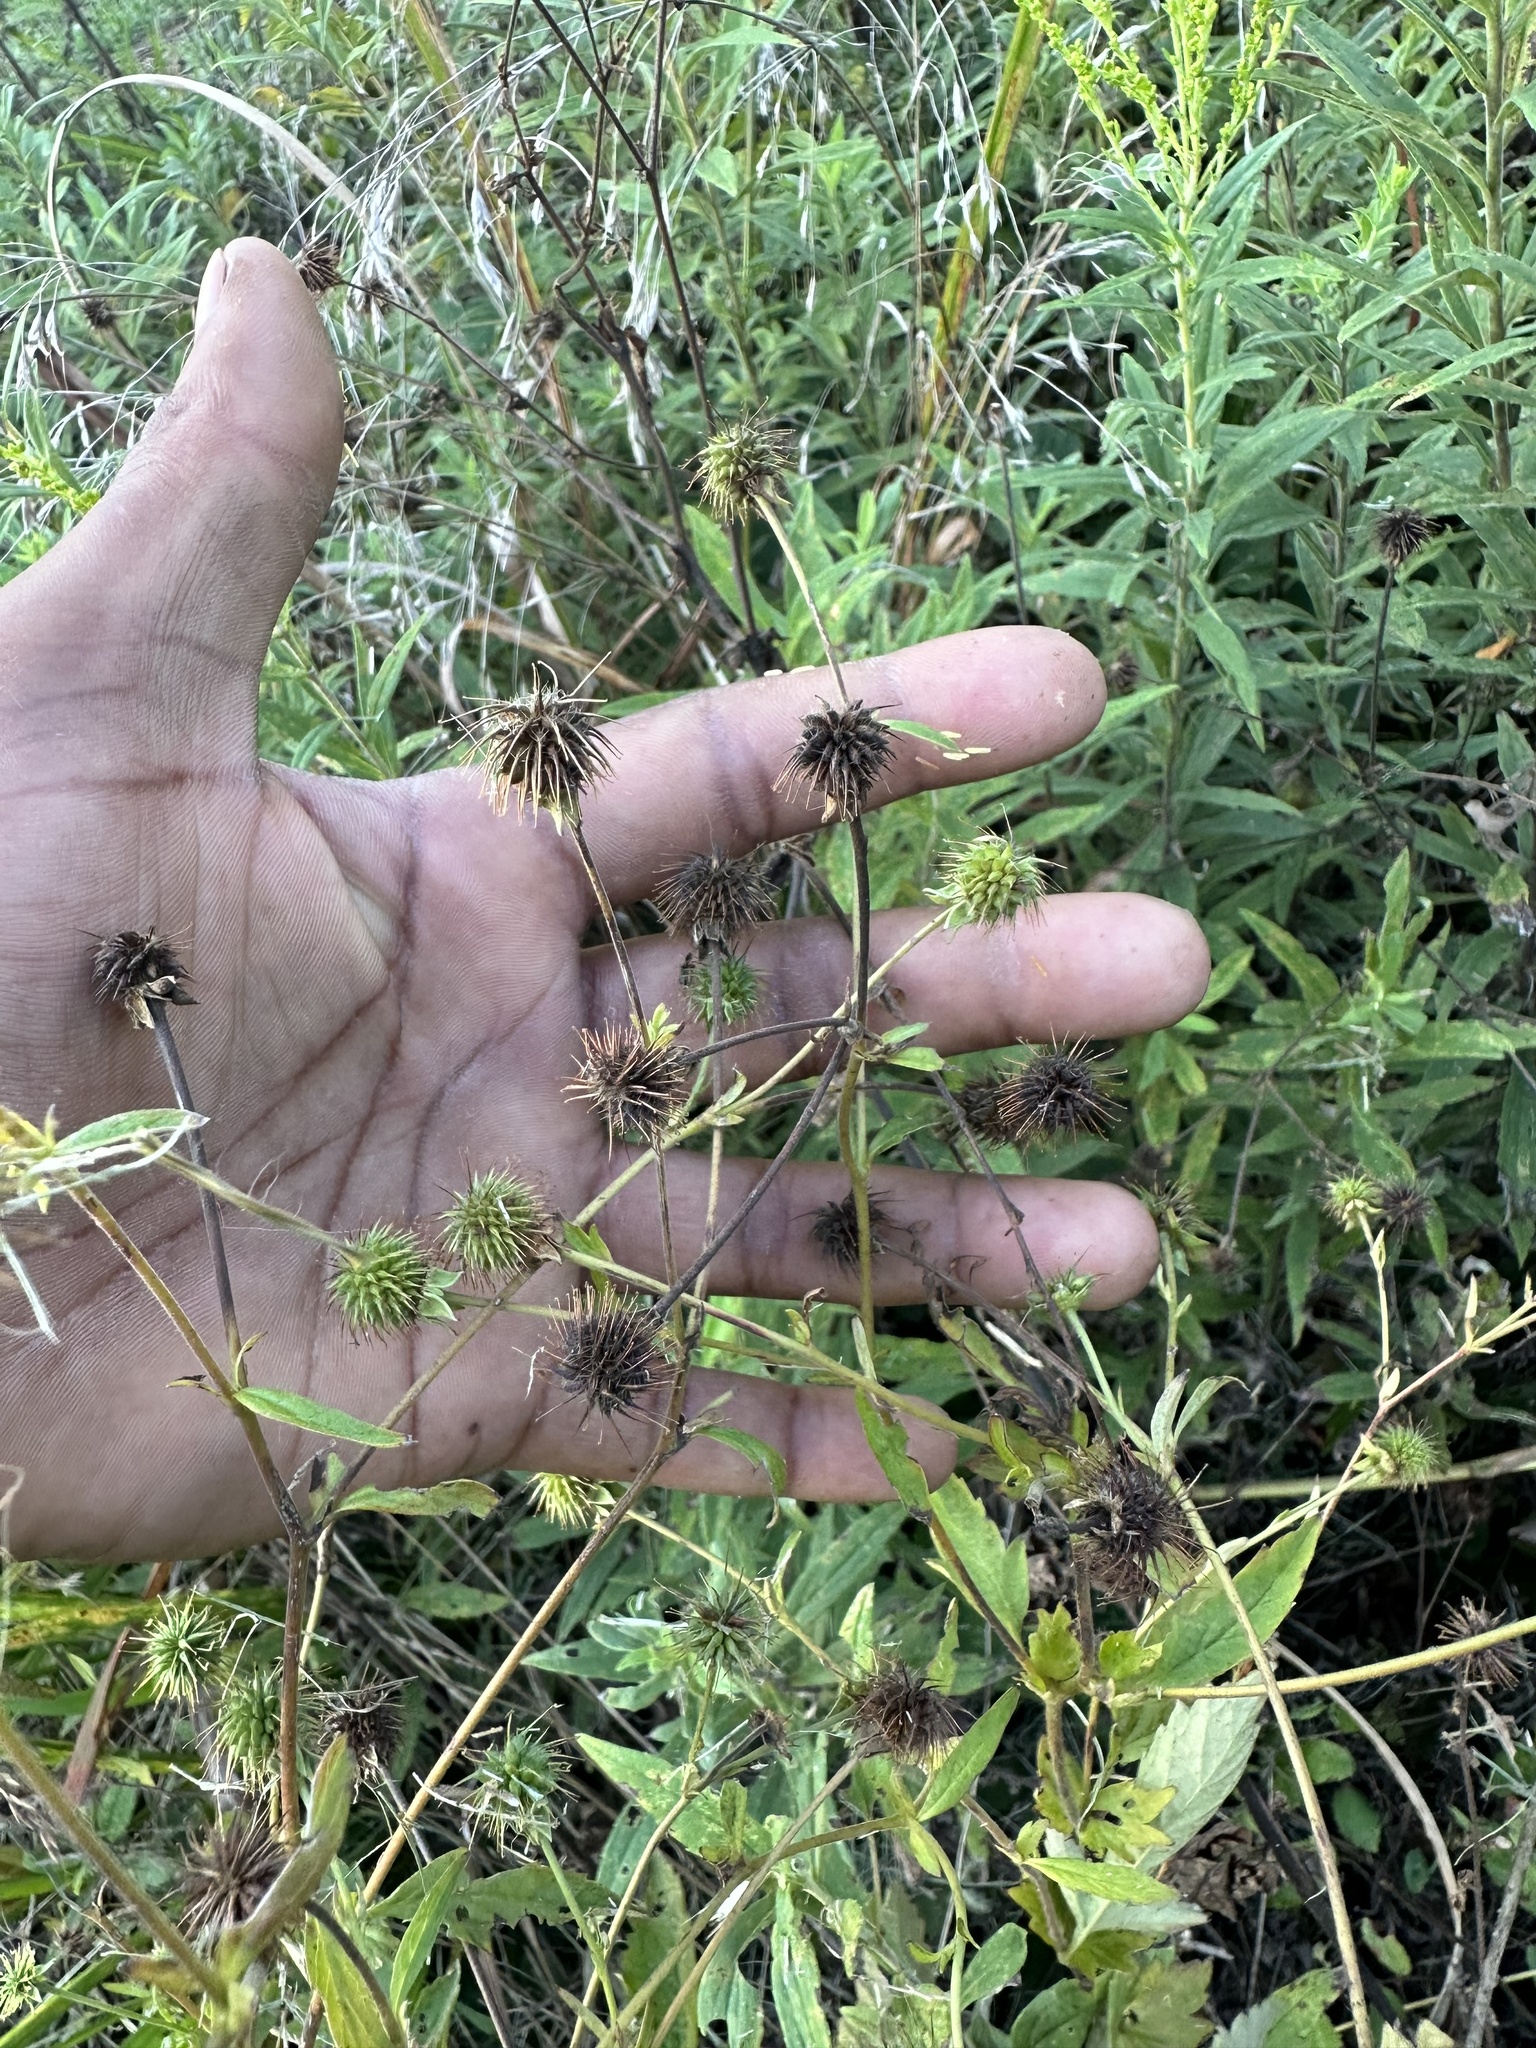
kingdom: Plantae
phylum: Tracheophyta
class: Magnoliopsida
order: Rosales
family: Rosaceae
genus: Geum
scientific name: Geum virginianum
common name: Cream avens
